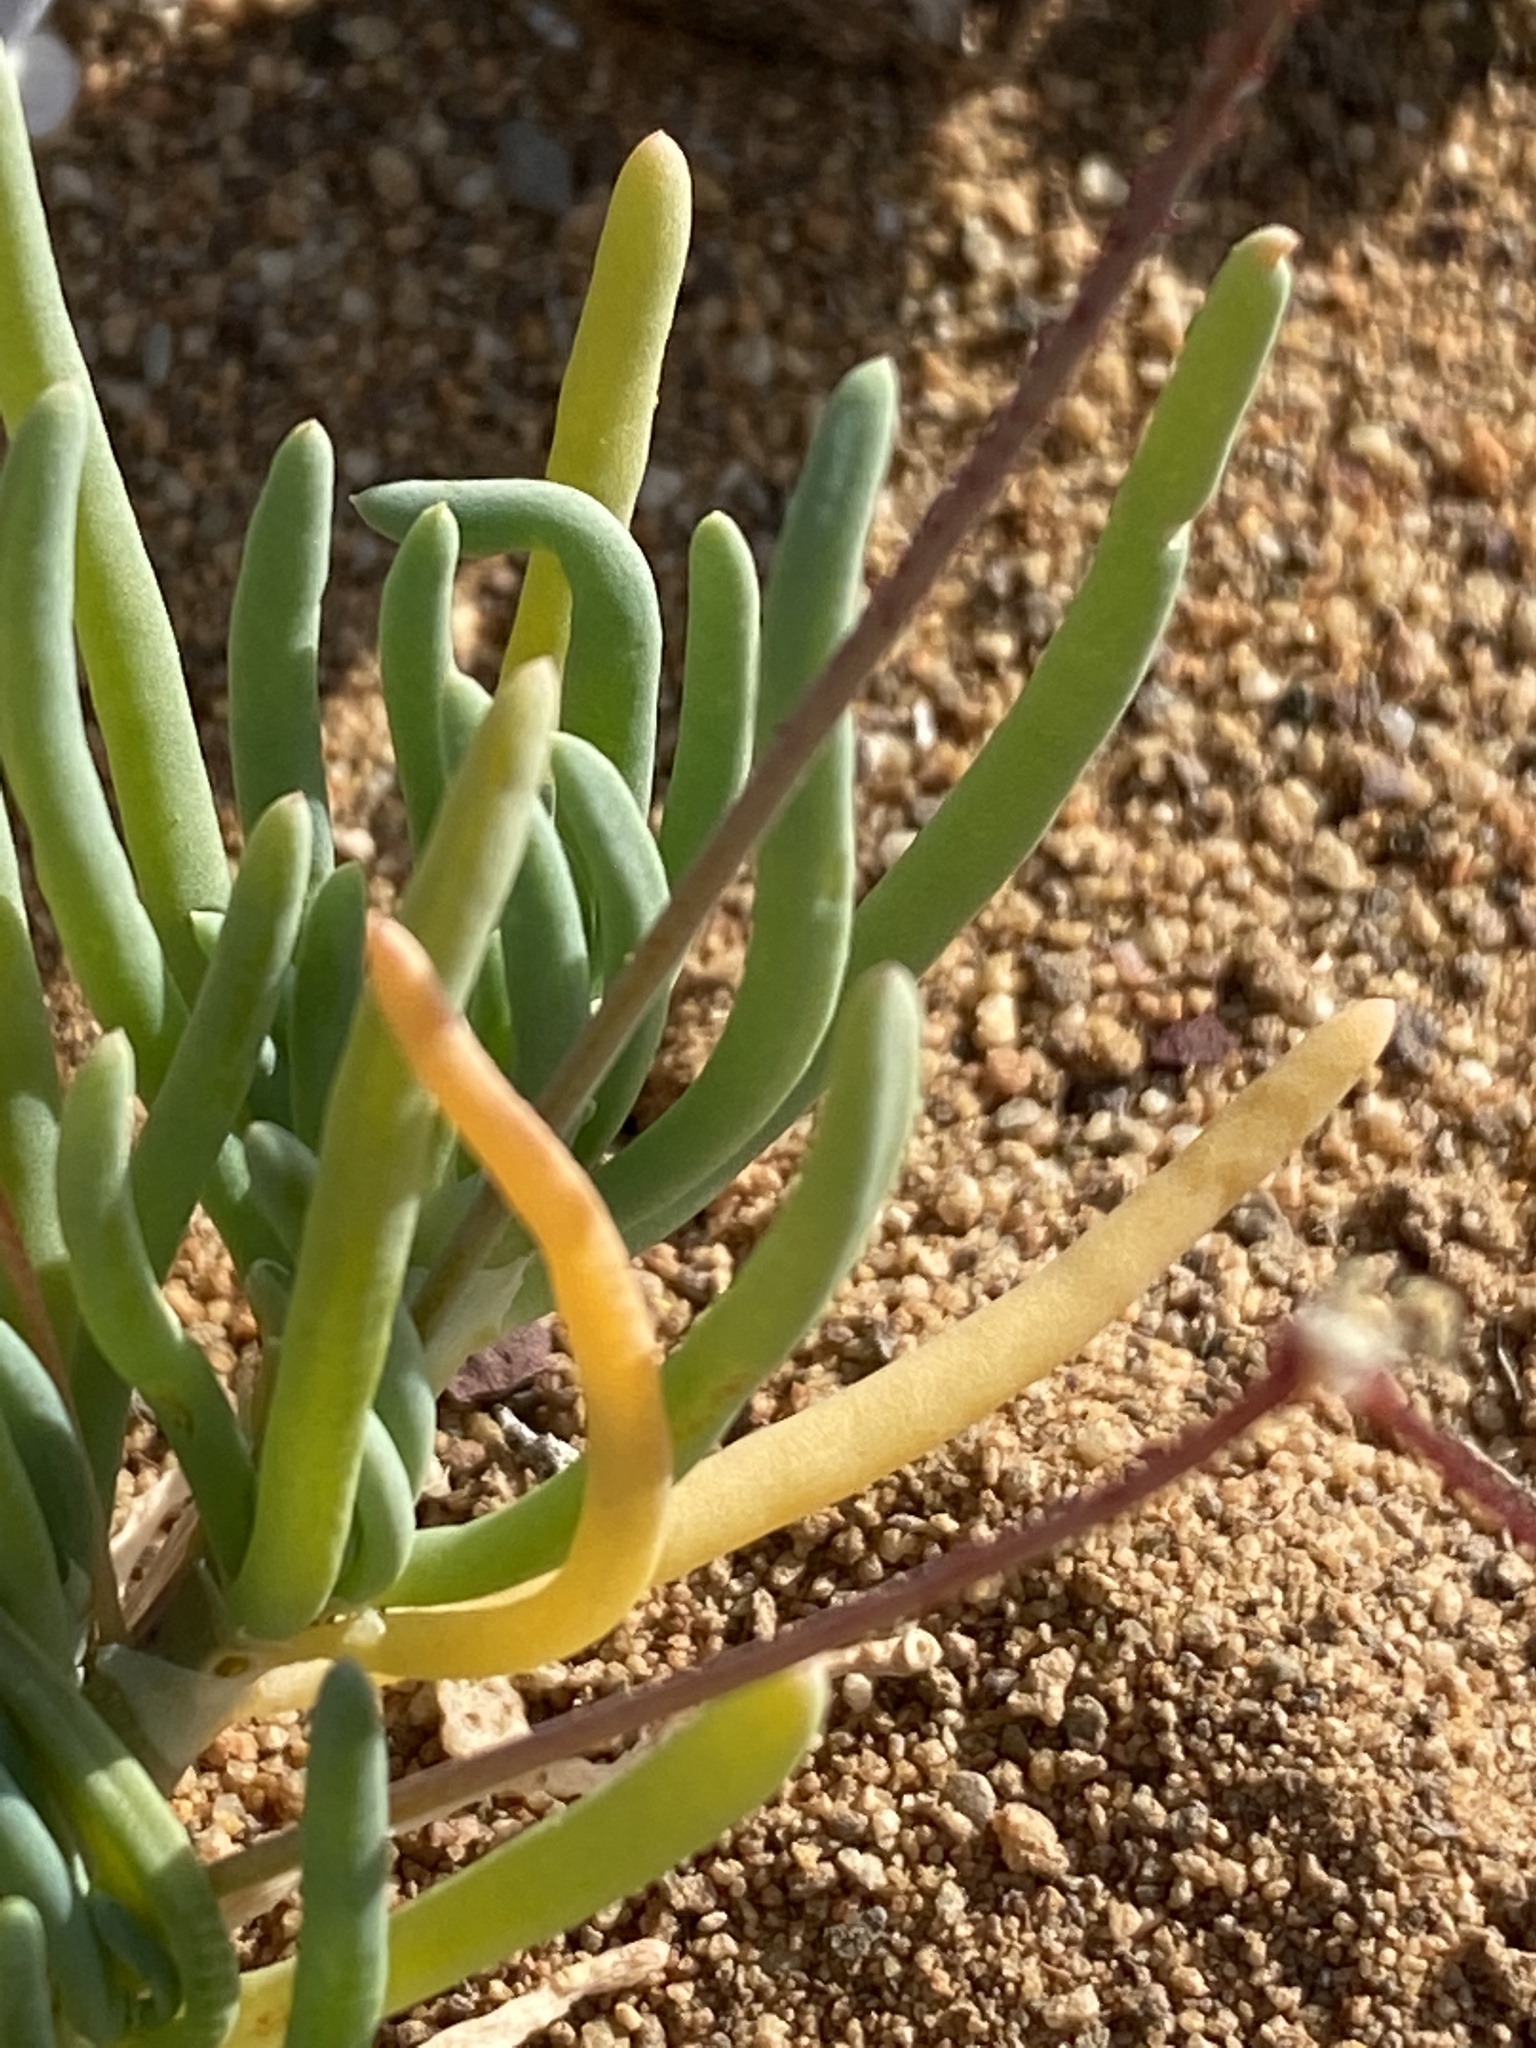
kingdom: Plantae
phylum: Tracheophyta
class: Magnoliopsida
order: Caryophyllales
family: Kewaceae
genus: Kewa
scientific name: Kewa salsoloides
